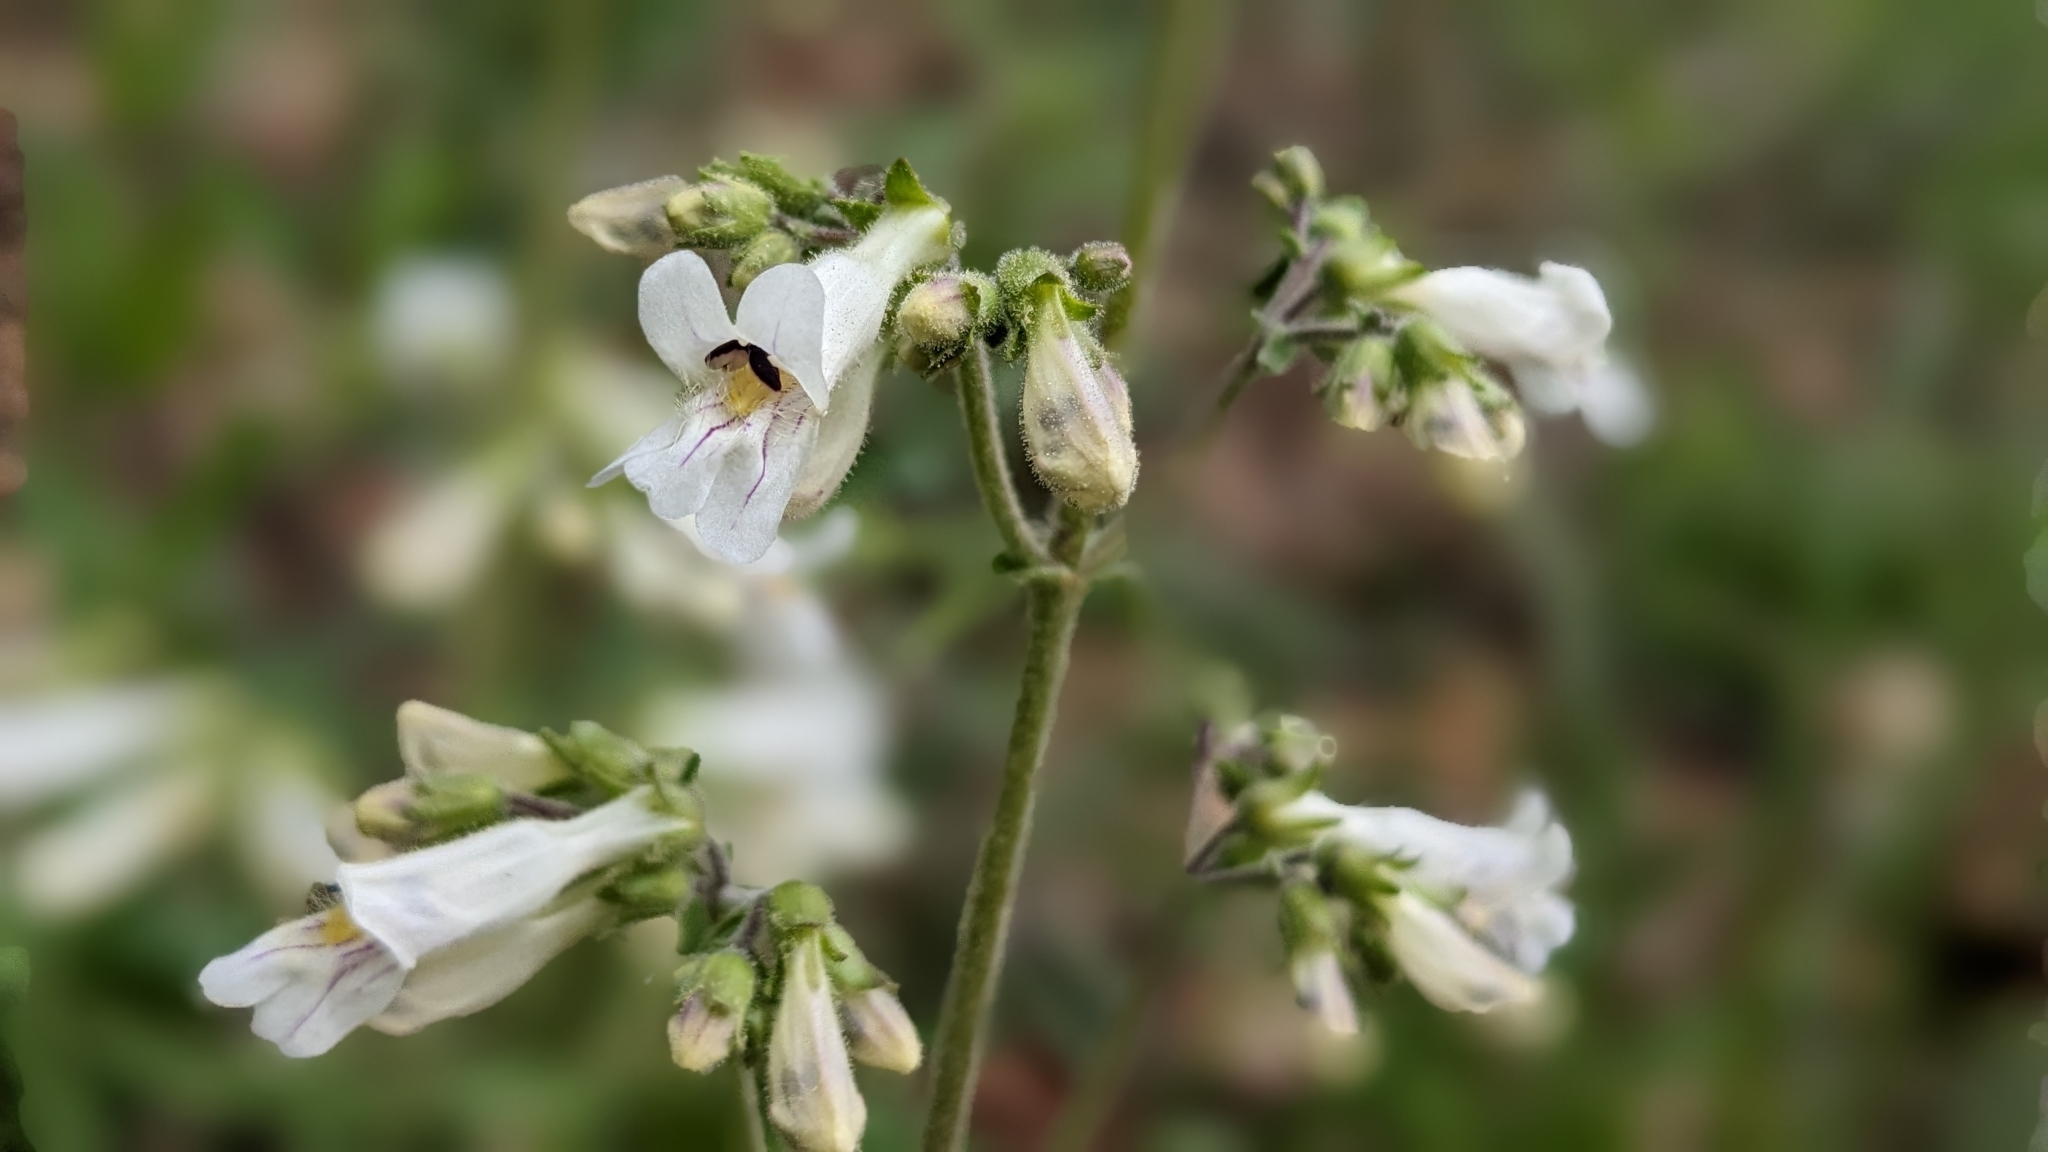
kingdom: Plantae
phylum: Tracheophyta
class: Magnoliopsida
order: Lamiales
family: Plantaginaceae
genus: Penstemon
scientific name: Penstemon pallidus
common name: Pale beardtongue
